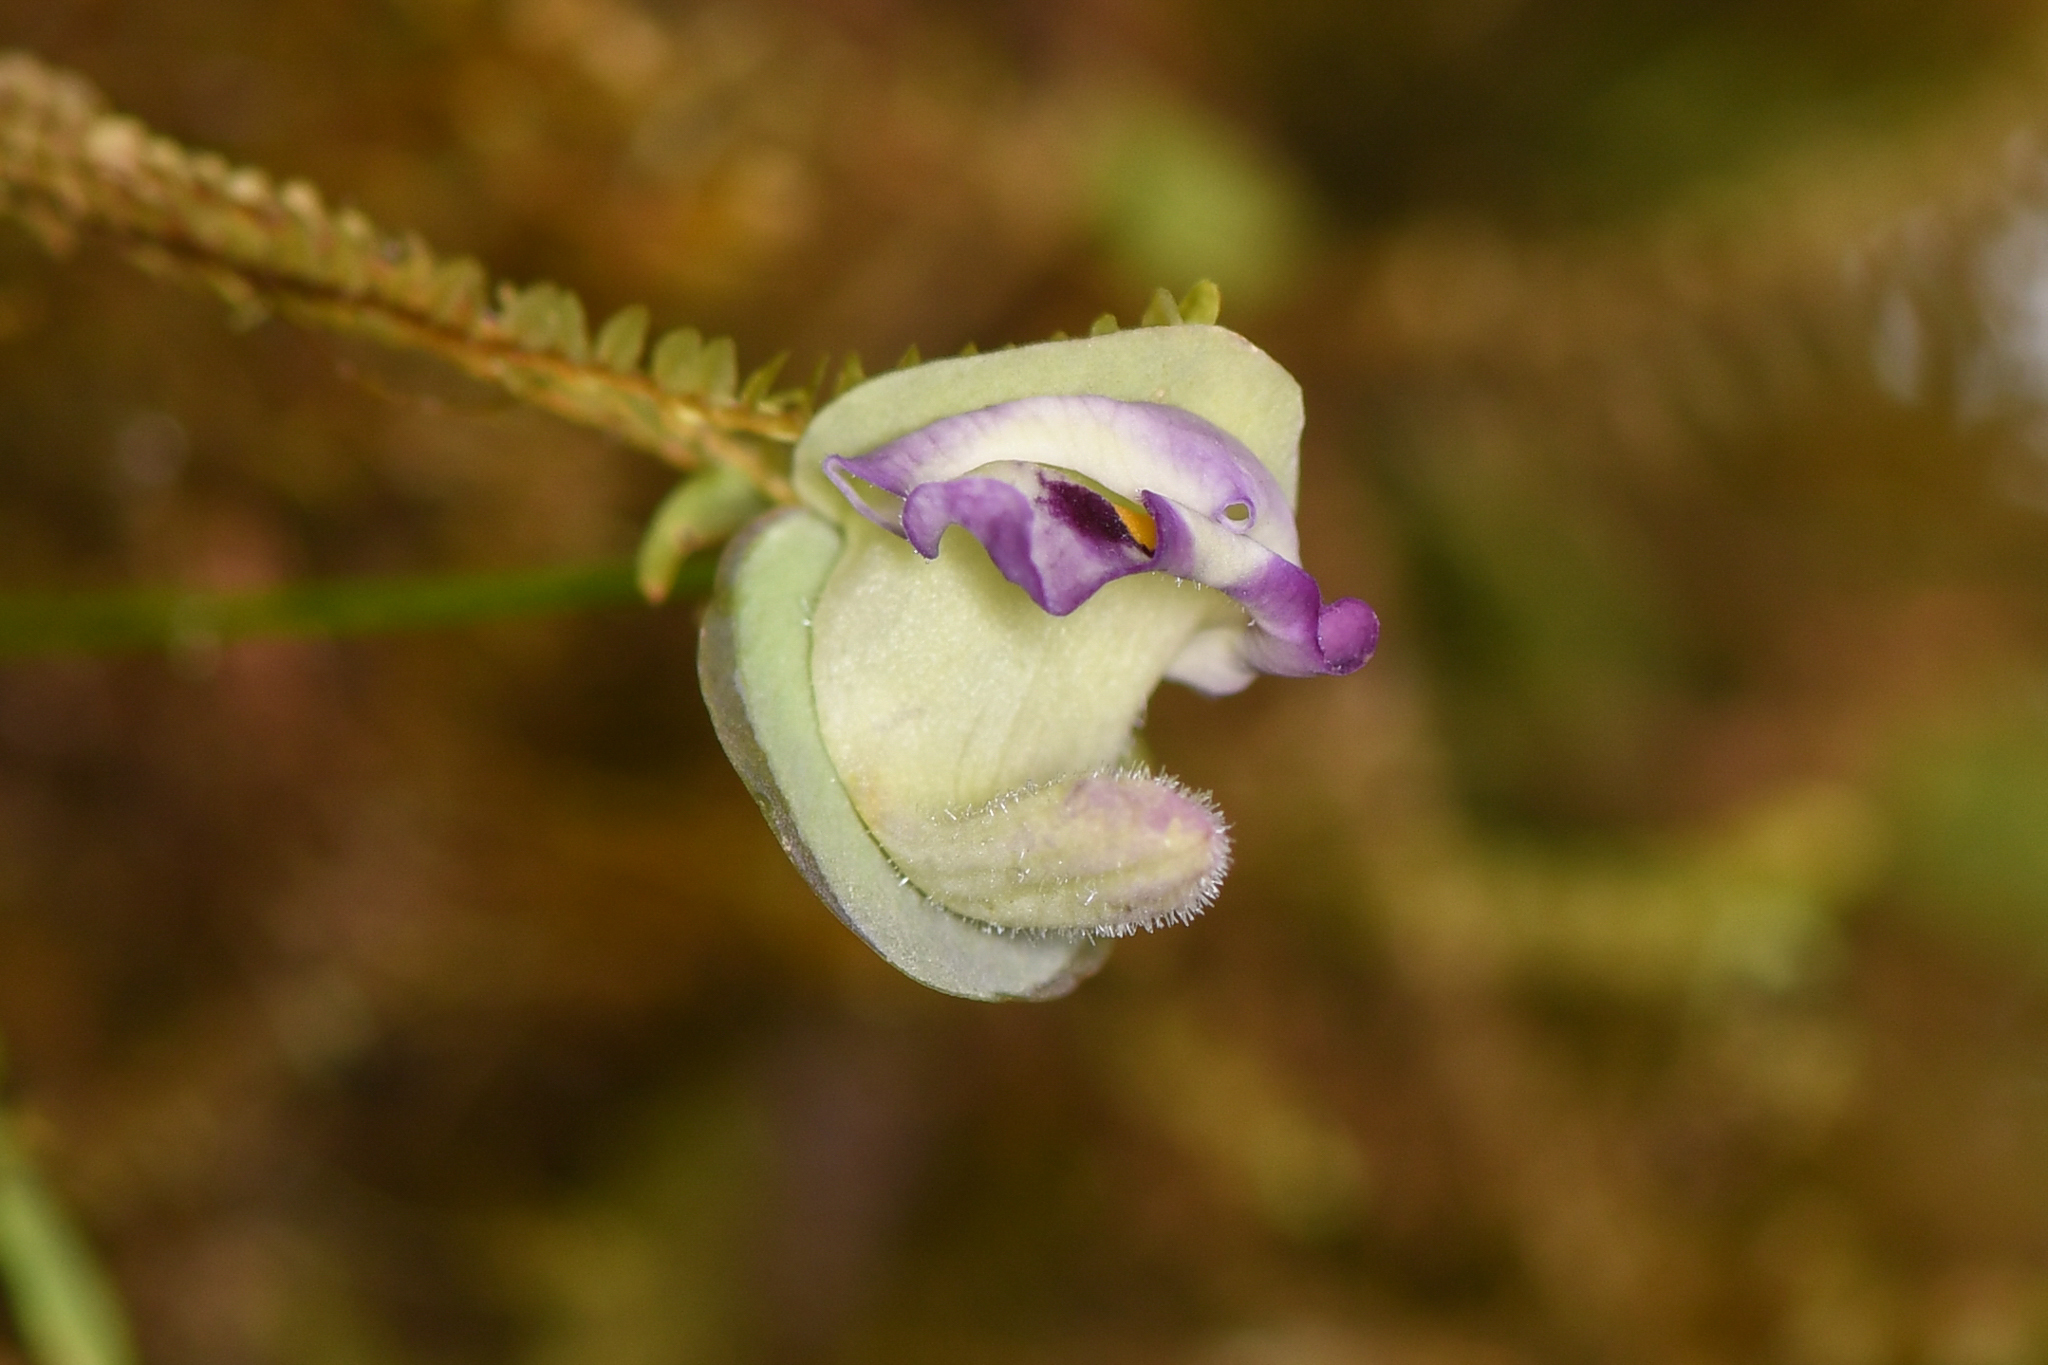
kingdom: Plantae
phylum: Tracheophyta
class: Magnoliopsida
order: Lamiales
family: Lentibulariaceae
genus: Utricularia
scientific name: Utricularia jamesoniana
